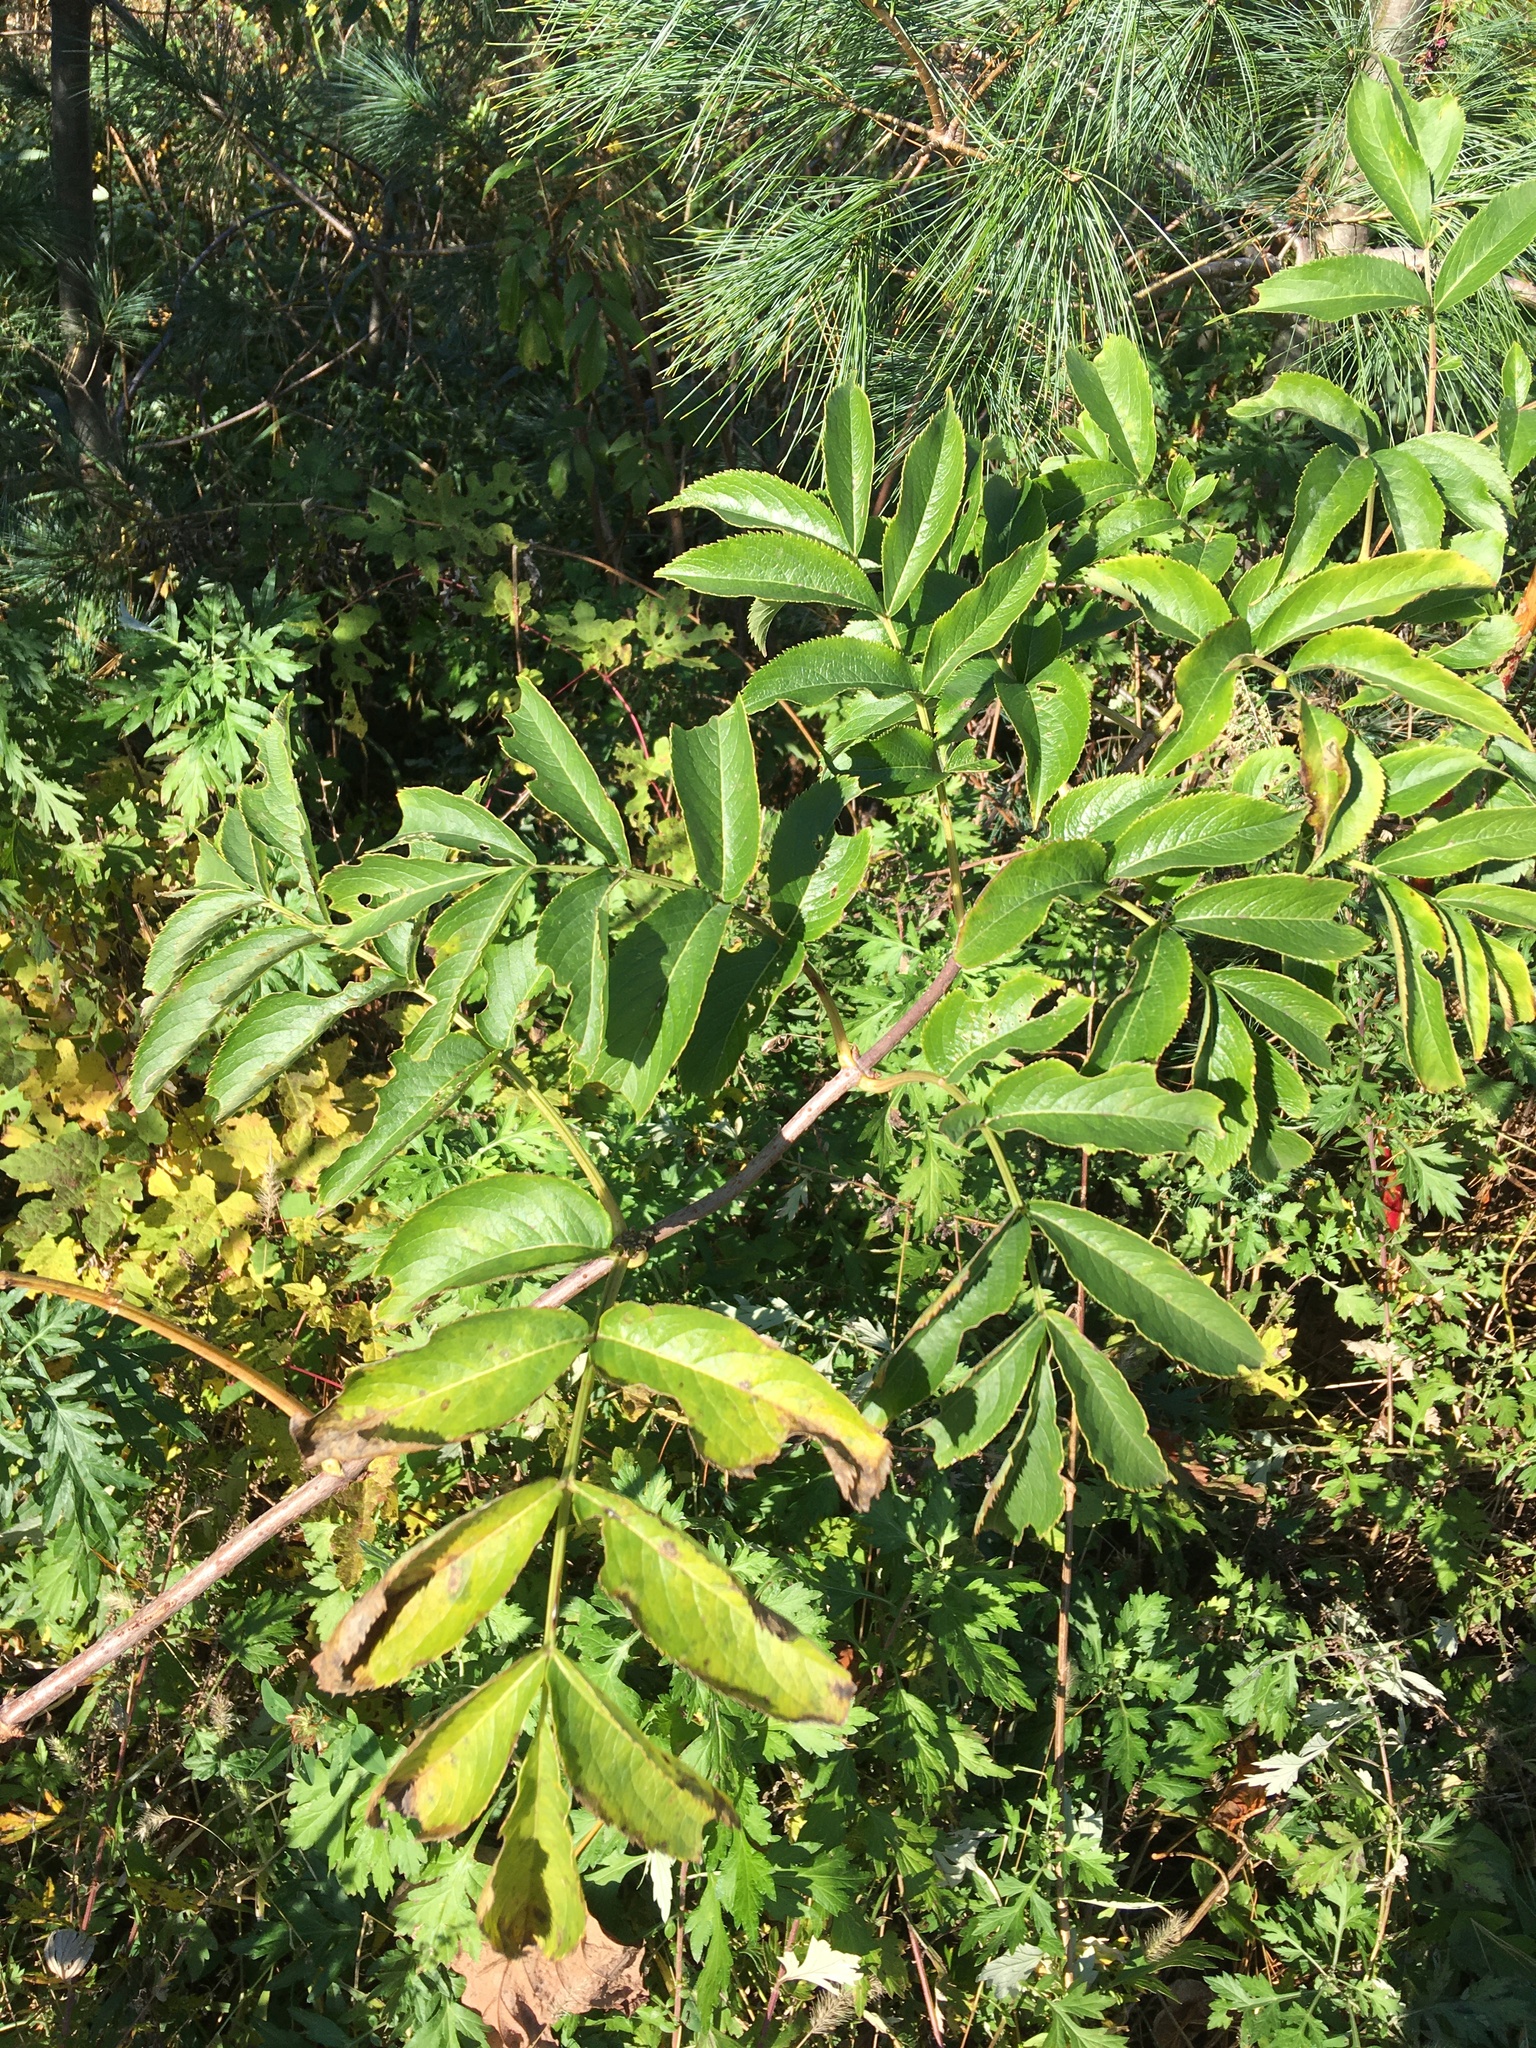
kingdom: Plantae
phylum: Tracheophyta
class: Magnoliopsida
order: Dipsacales
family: Viburnaceae
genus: Sambucus
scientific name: Sambucus canadensis
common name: American elder
